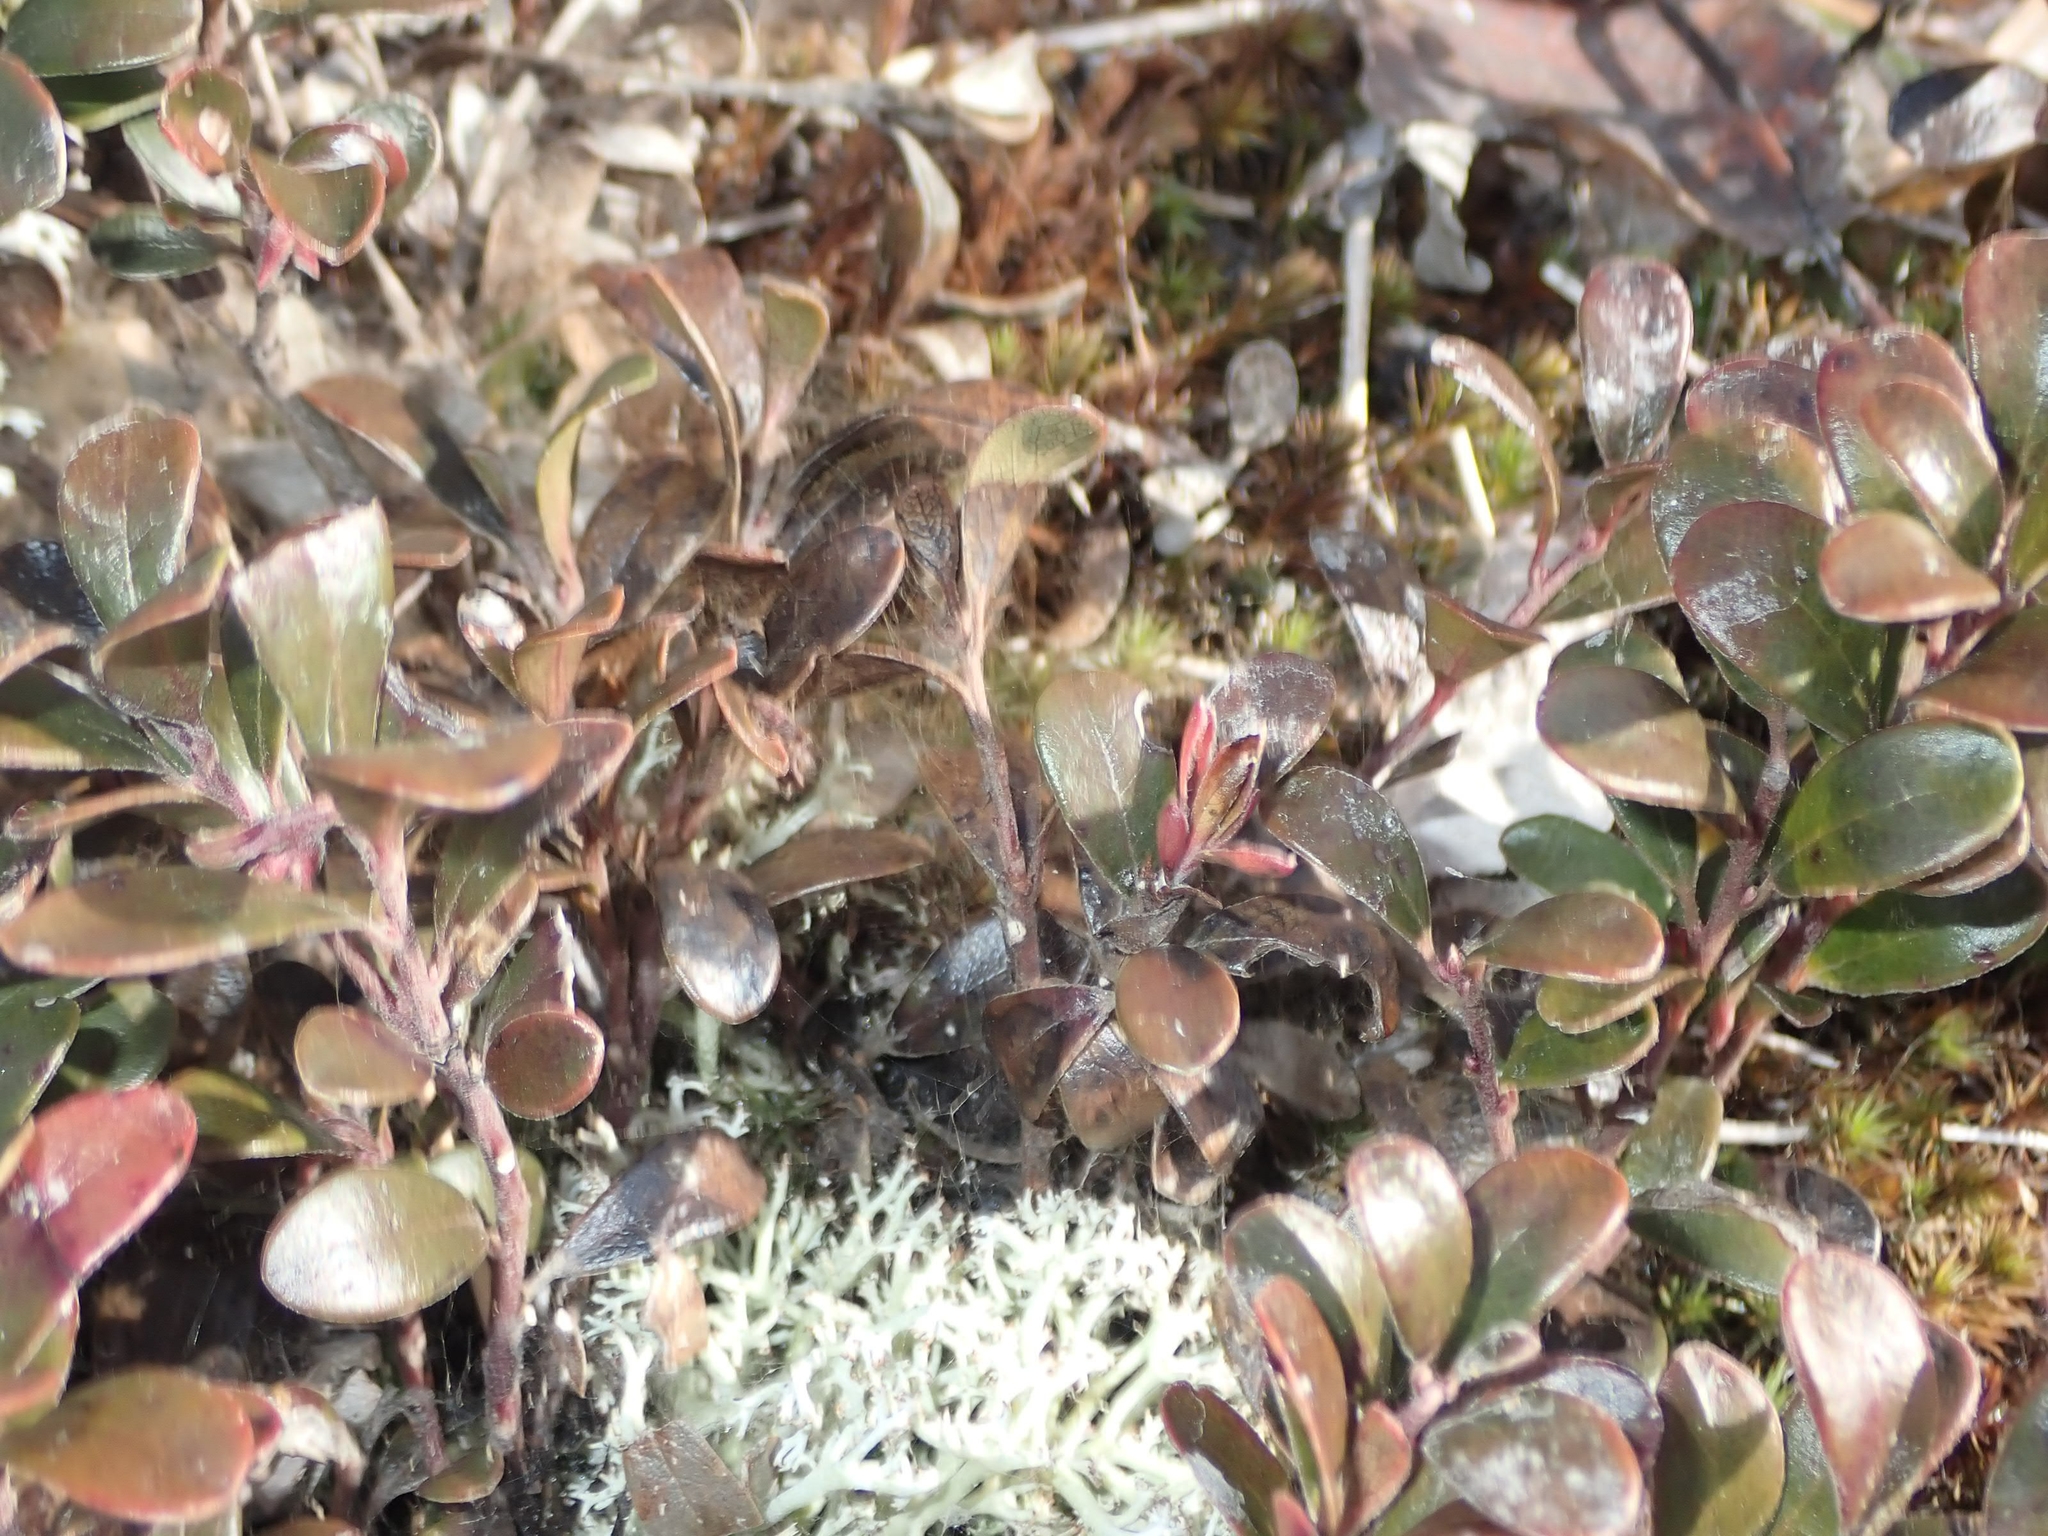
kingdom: Plantae
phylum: Tracheophyta
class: Magnoliopsida
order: Ericales
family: Ericaceae
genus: Arctostaphylos
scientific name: Arctostaphylos uva-ursi
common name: Bearberry
